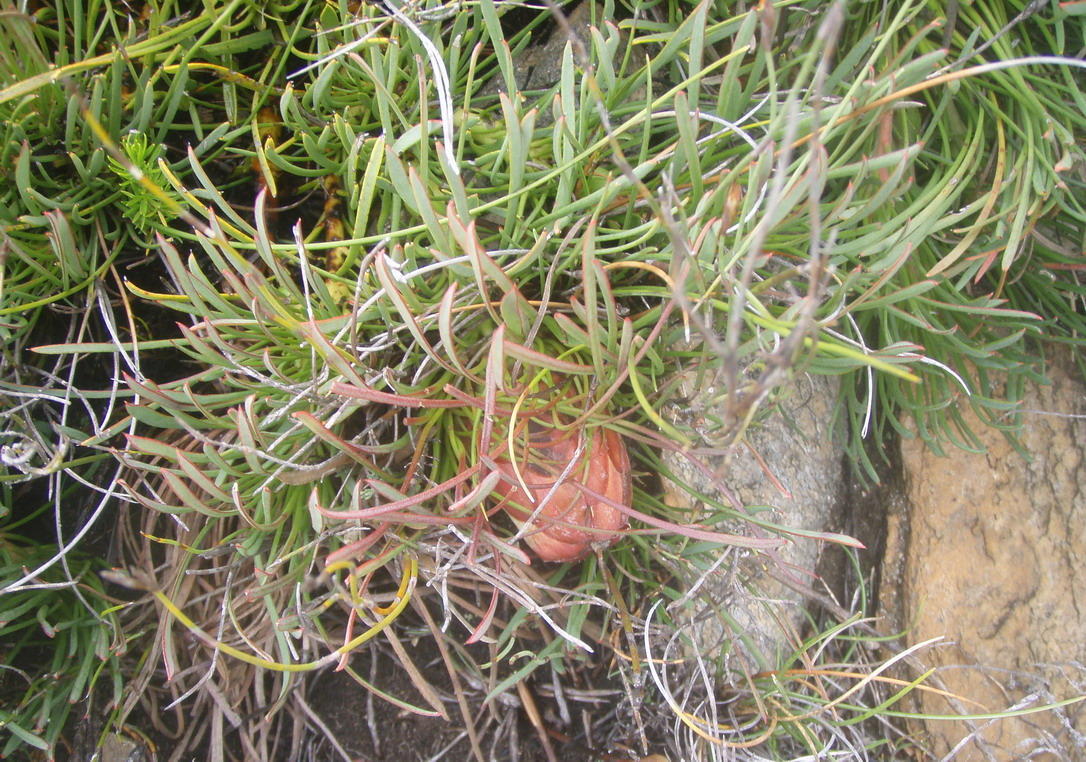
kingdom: Plantae
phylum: Tracheophyta
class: Magnoliopsida
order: Proteales
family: Proteaceae
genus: Protea
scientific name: Protea montana
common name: Swartberg sugarbush
